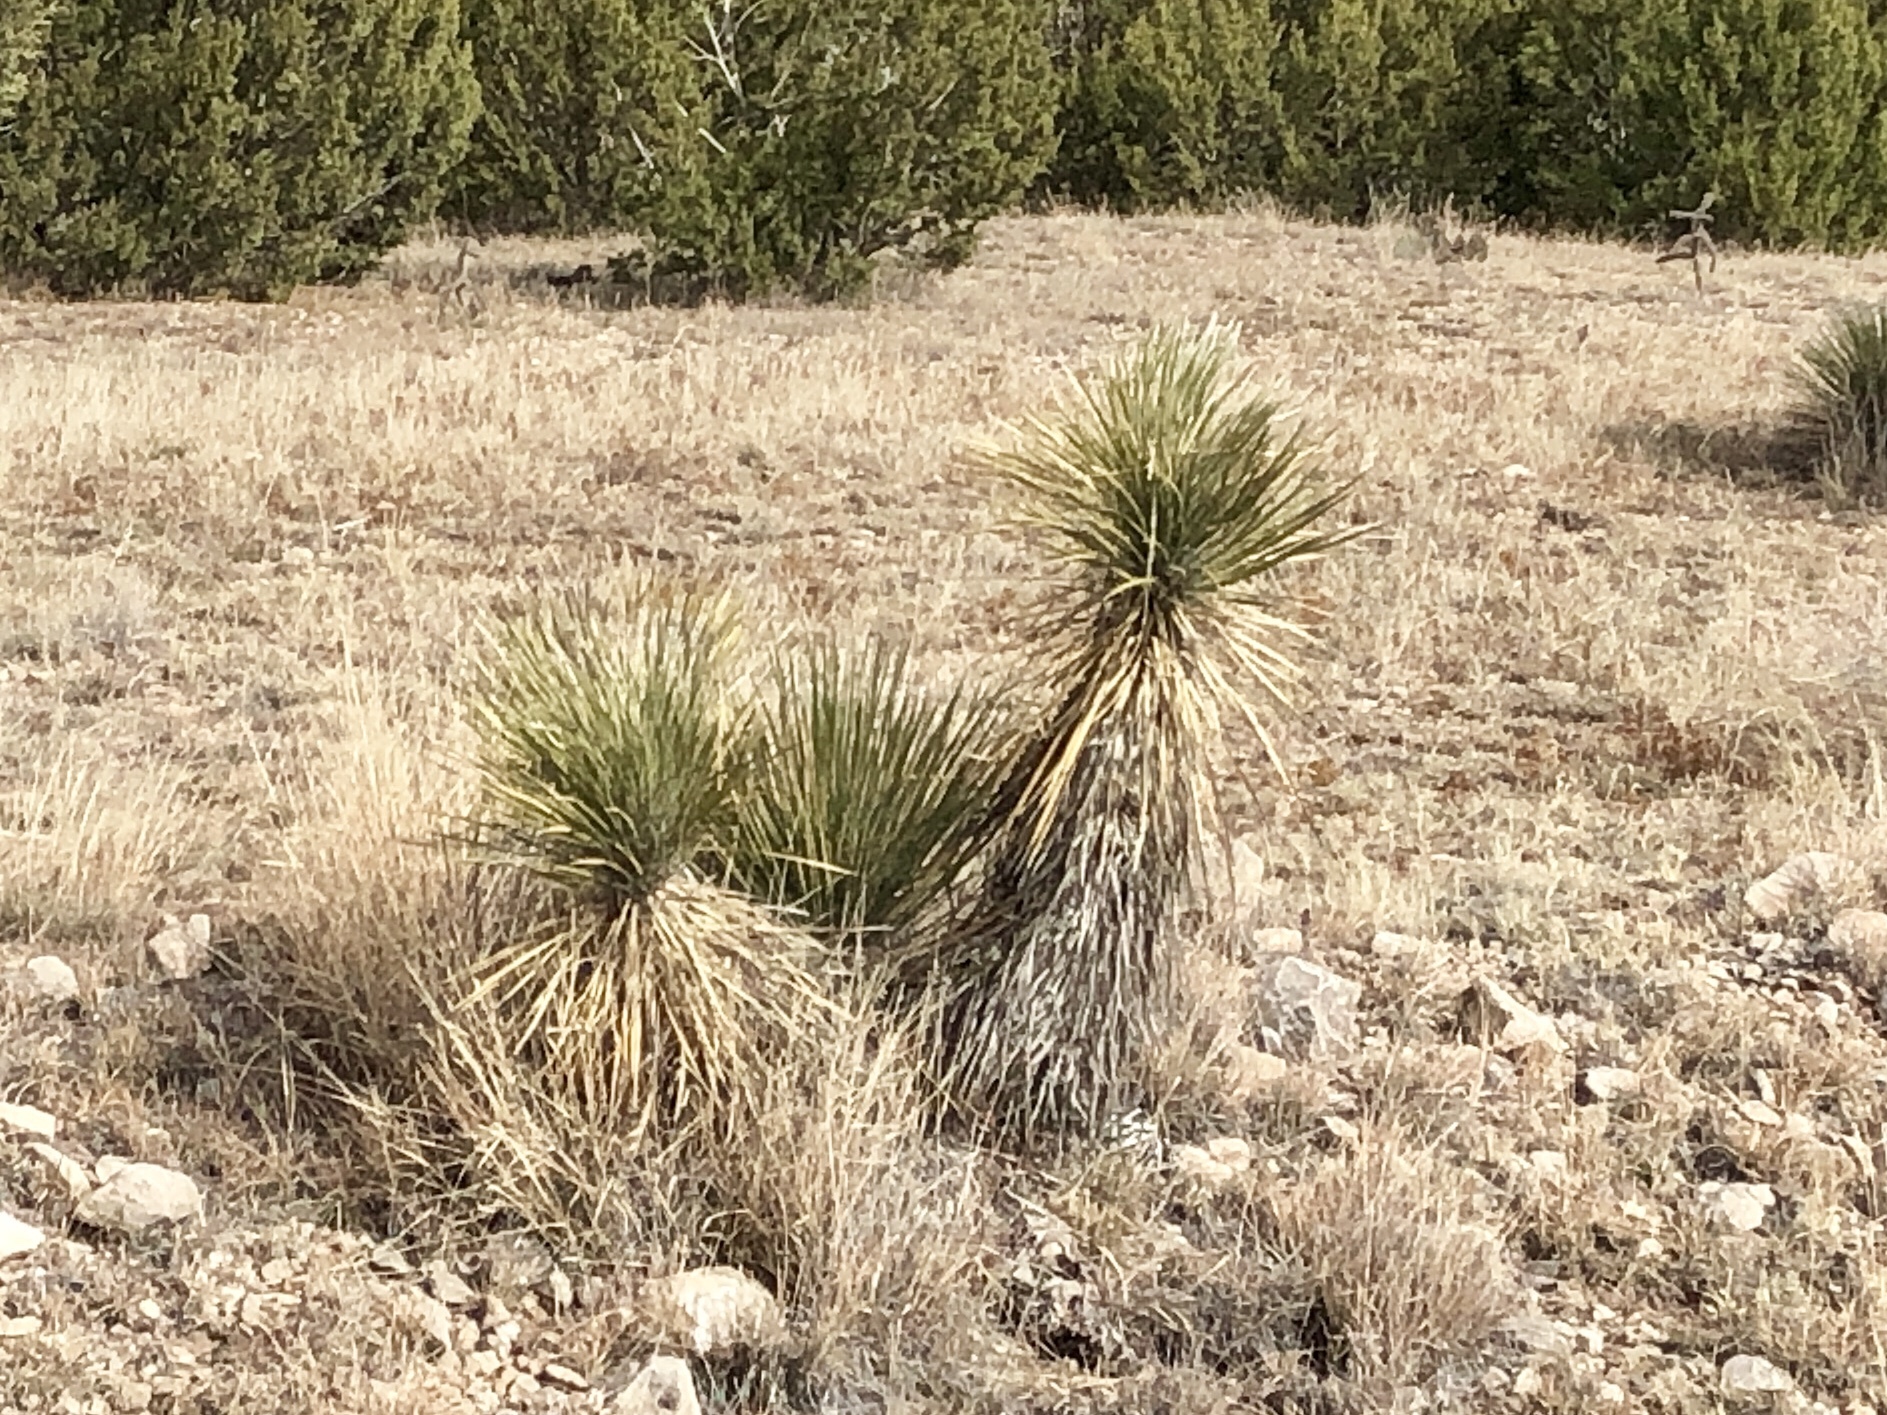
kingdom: Plantae
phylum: Tracheophyta
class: Liliopsida
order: Asparagales
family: Asparagaceae
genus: Yucca
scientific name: Yucca elata
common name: Palmella
